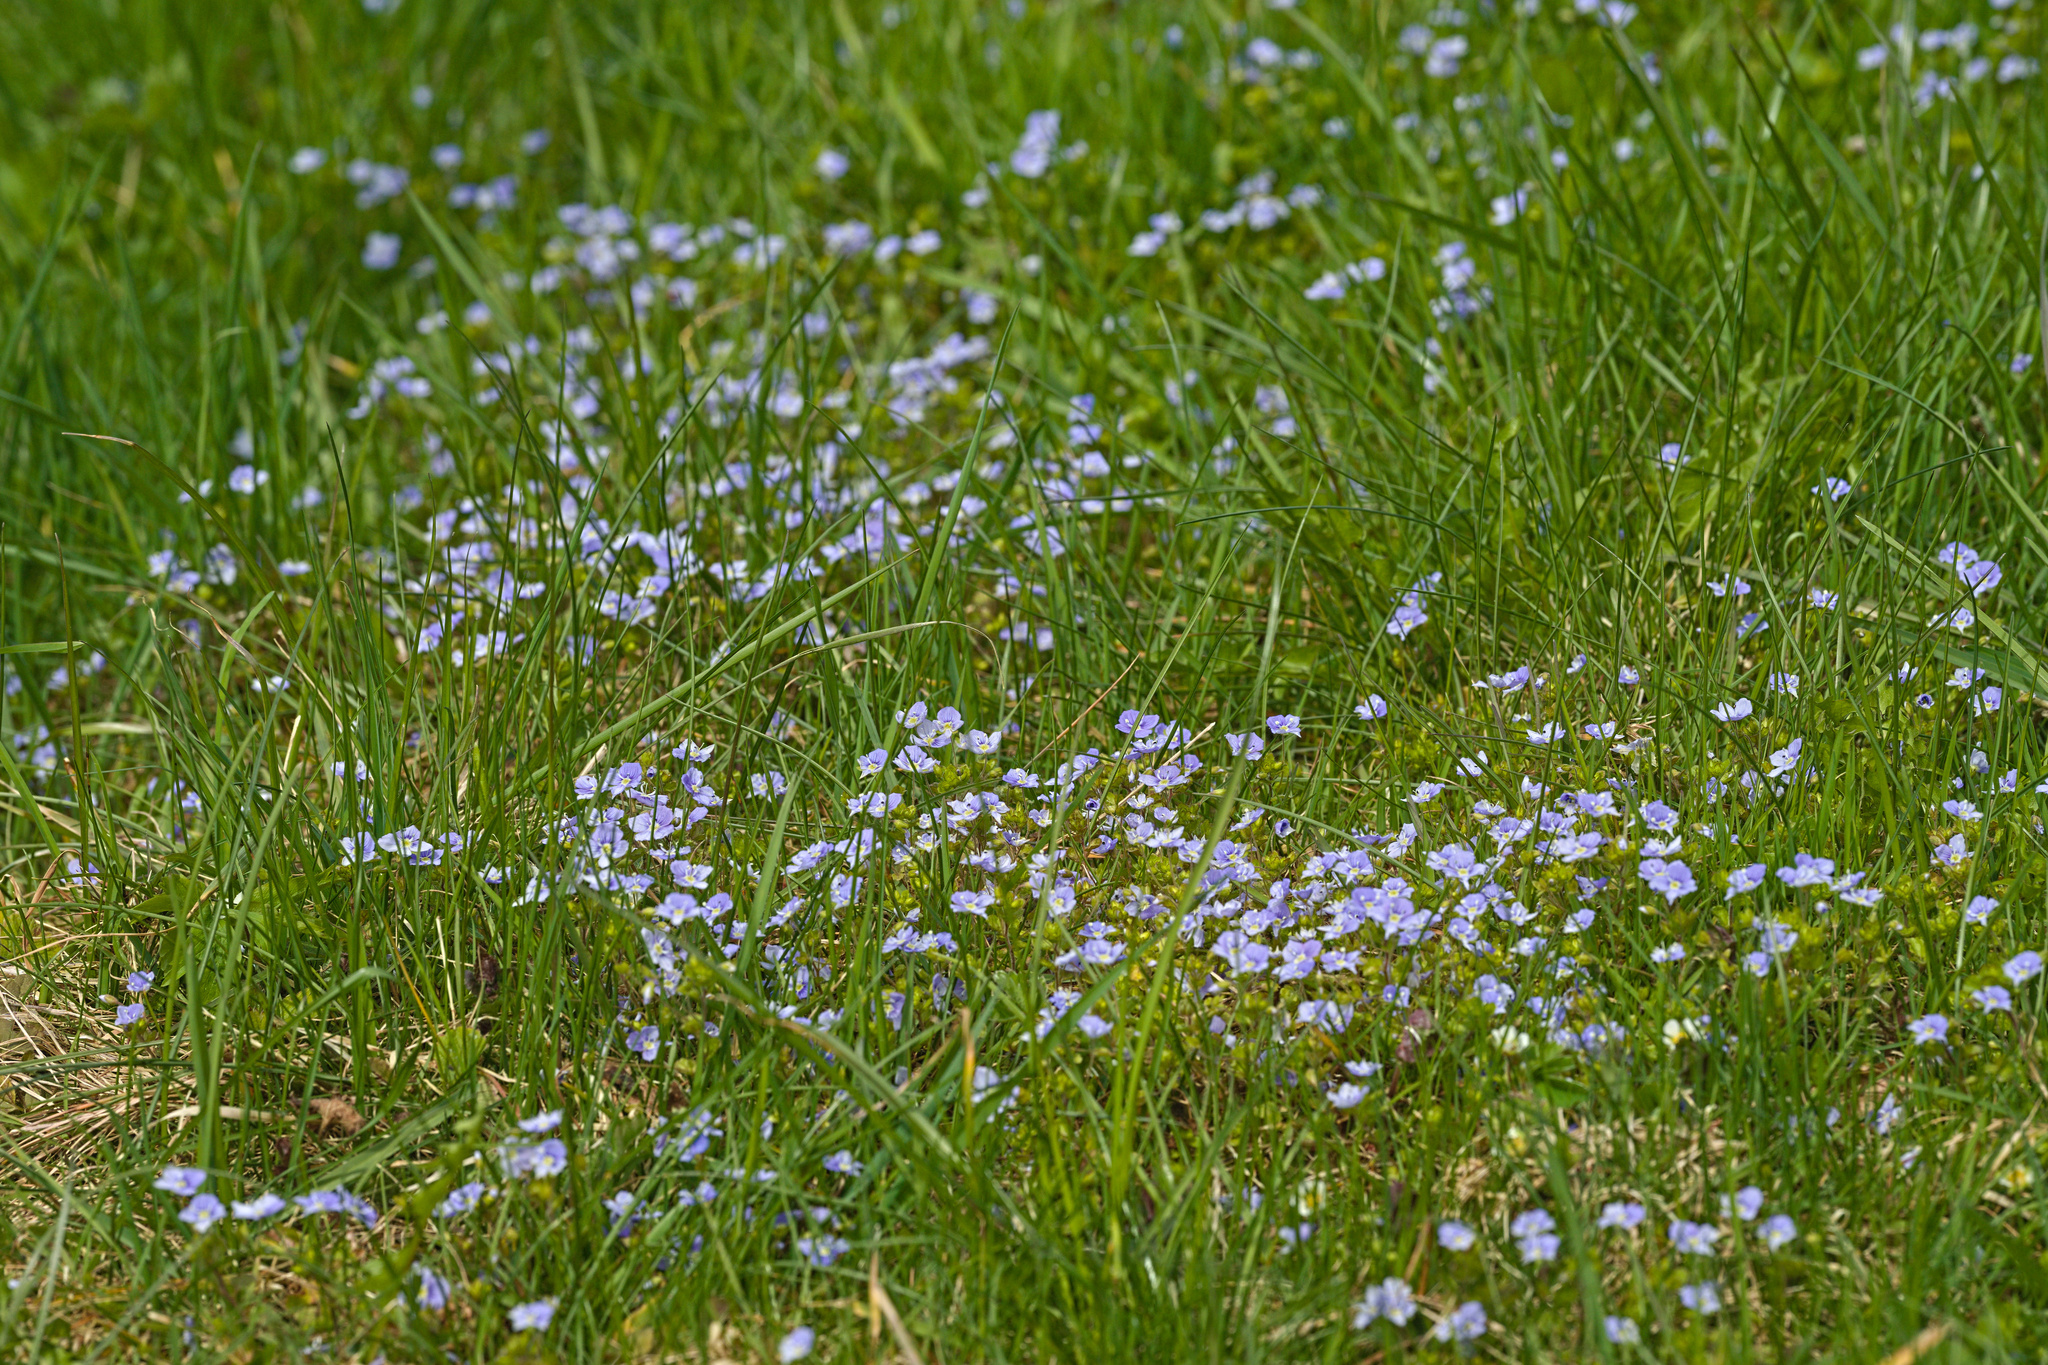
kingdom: Plantae
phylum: Tracheophyta
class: Magnoliopsida
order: Lamiales
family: Plantaginaceae
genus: Veronica
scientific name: Veronica filiformis
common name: Slender speedwell
